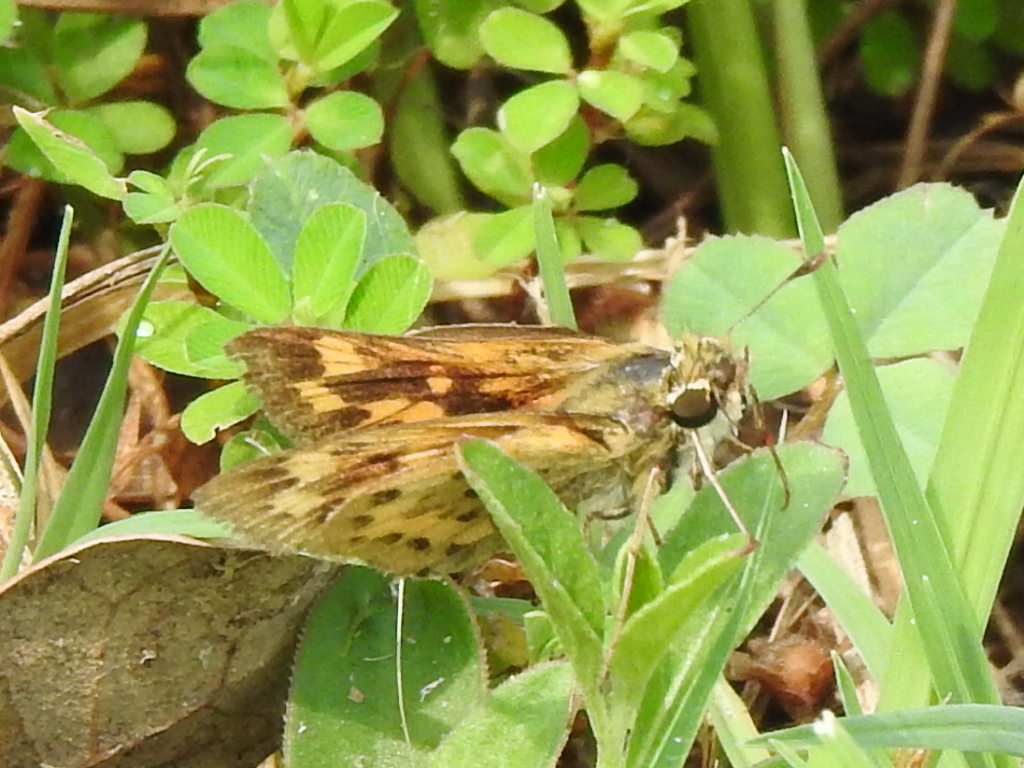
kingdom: Animalia
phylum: Arthropoda
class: Insecta
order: Lepidoptera
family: Hesperiidae
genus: Hylephila
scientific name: Hylephila phyleus
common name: Fiery skipper
